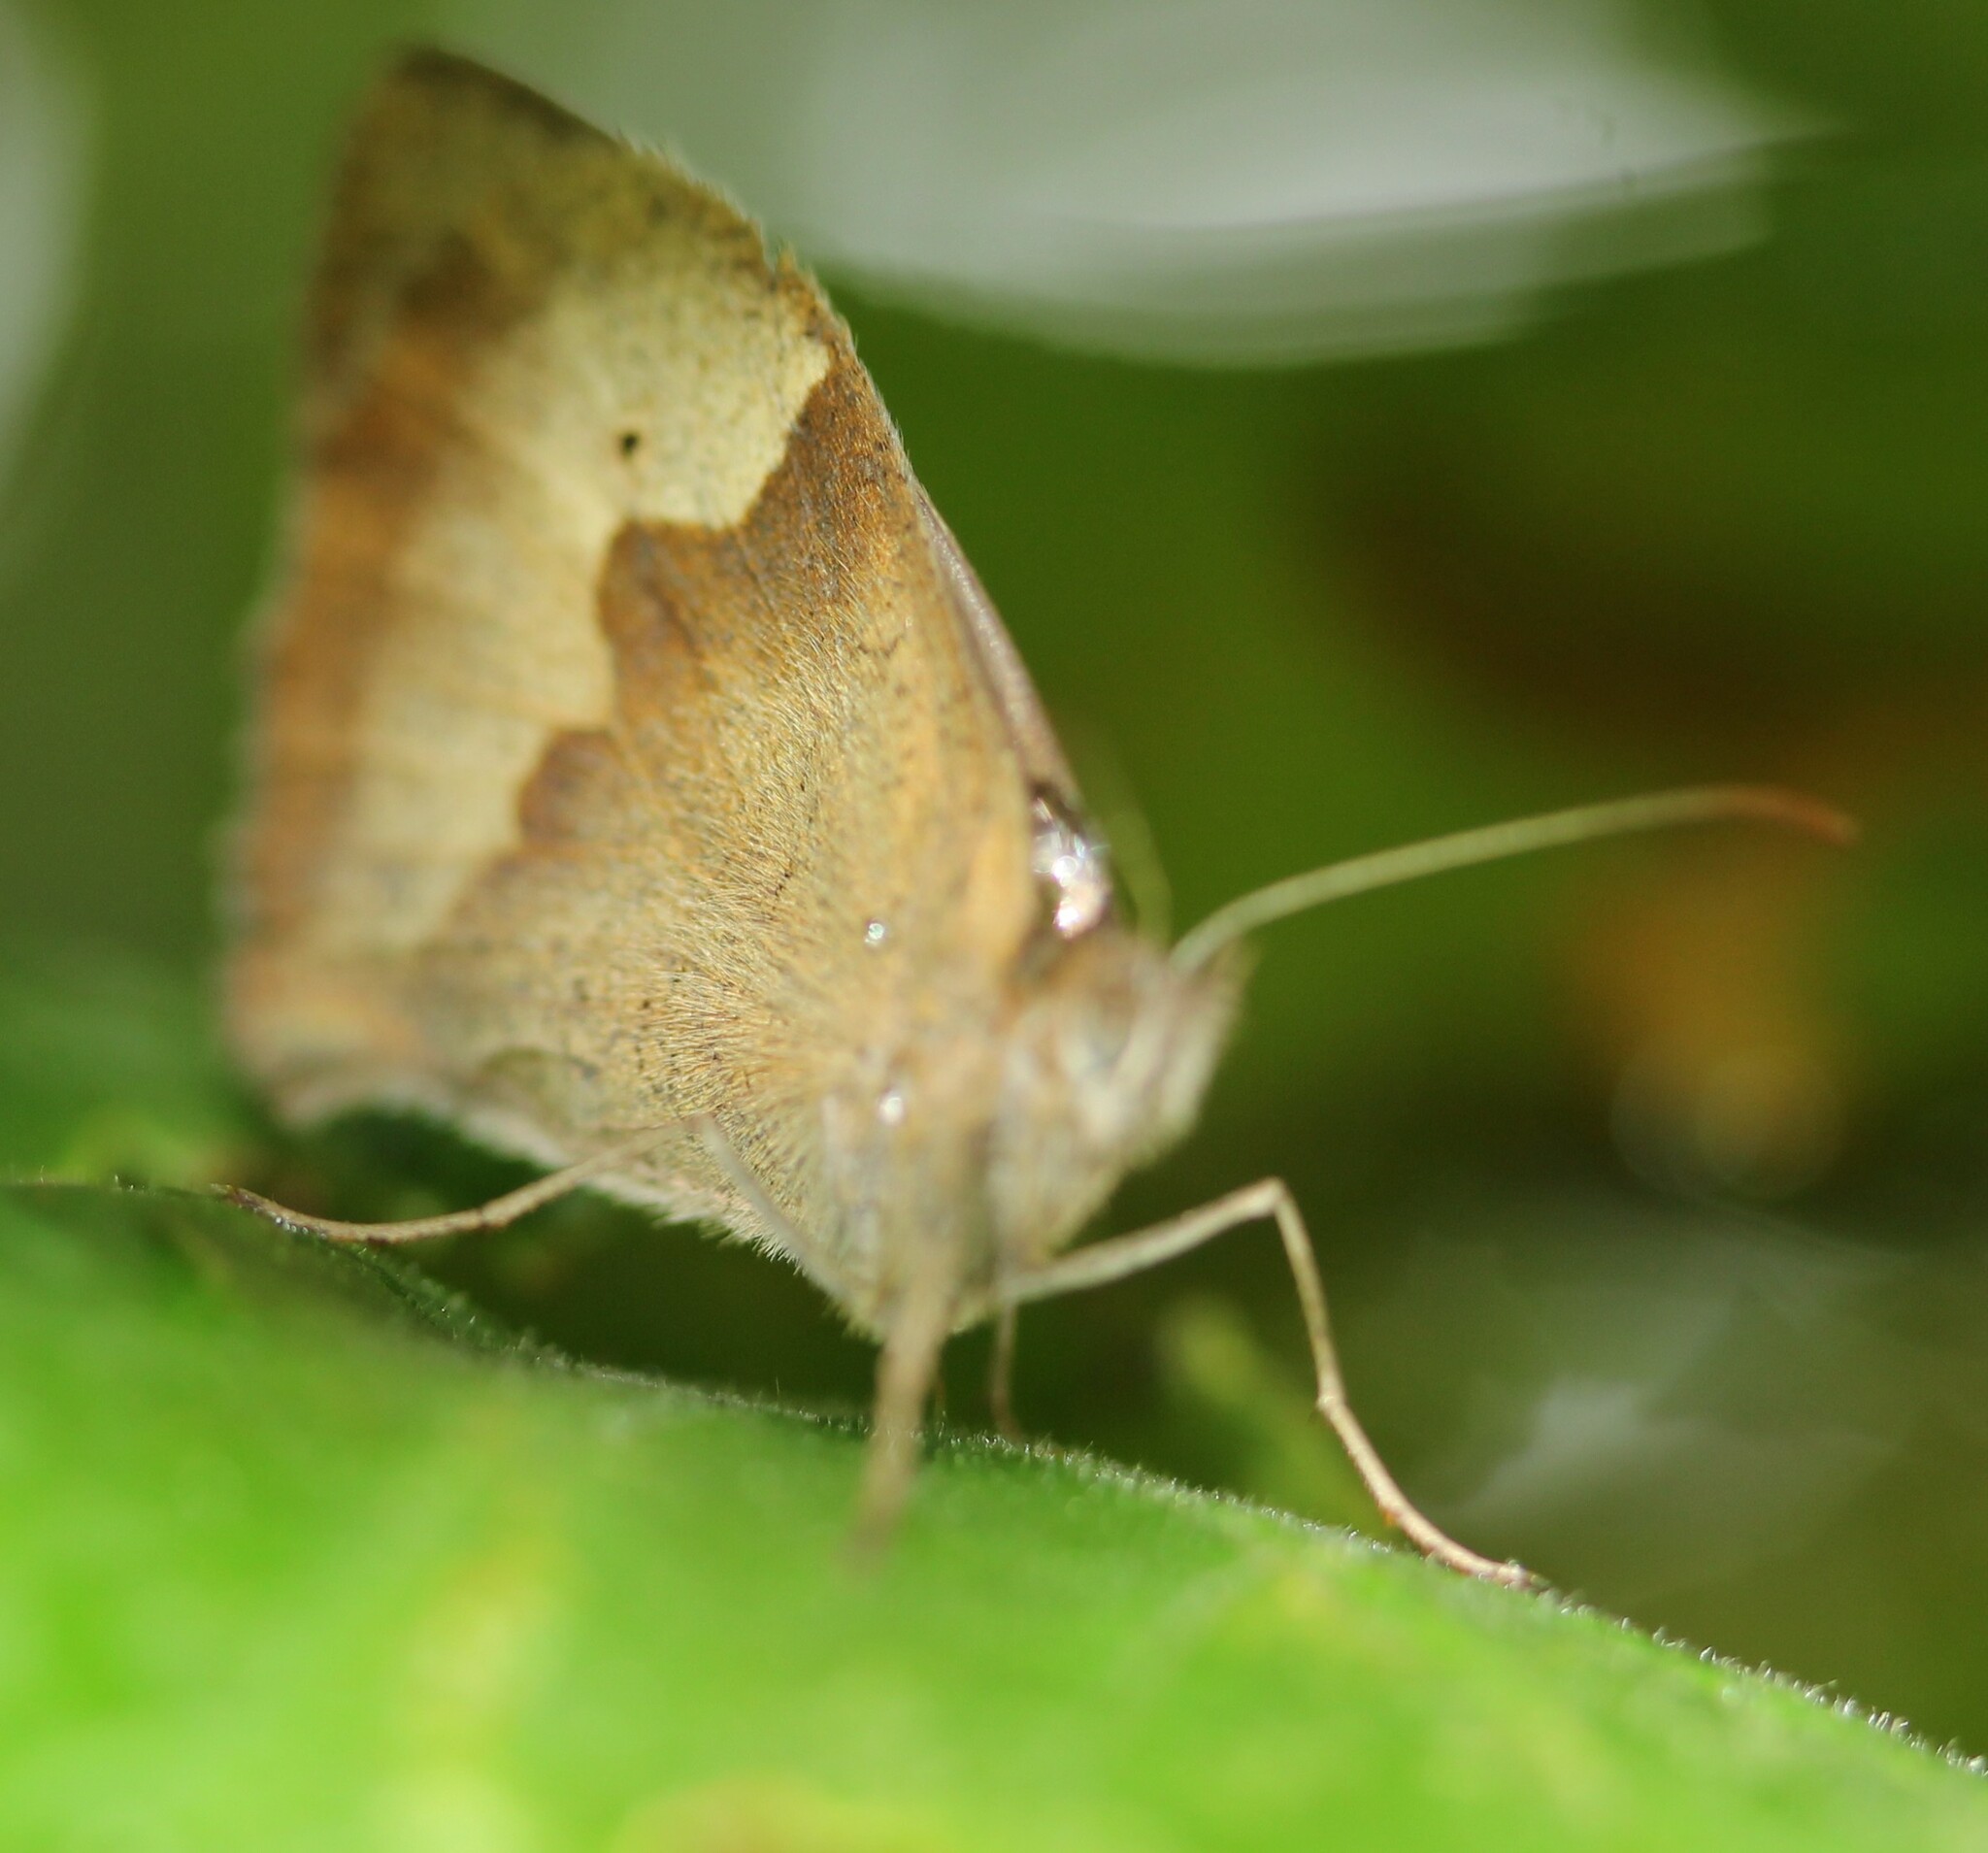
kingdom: Animalia
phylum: Arthropoda
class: Insecta
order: Lepidoptera
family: Nymphalidae
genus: Maniola
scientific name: Maniola jurtina
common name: Meadow brown
